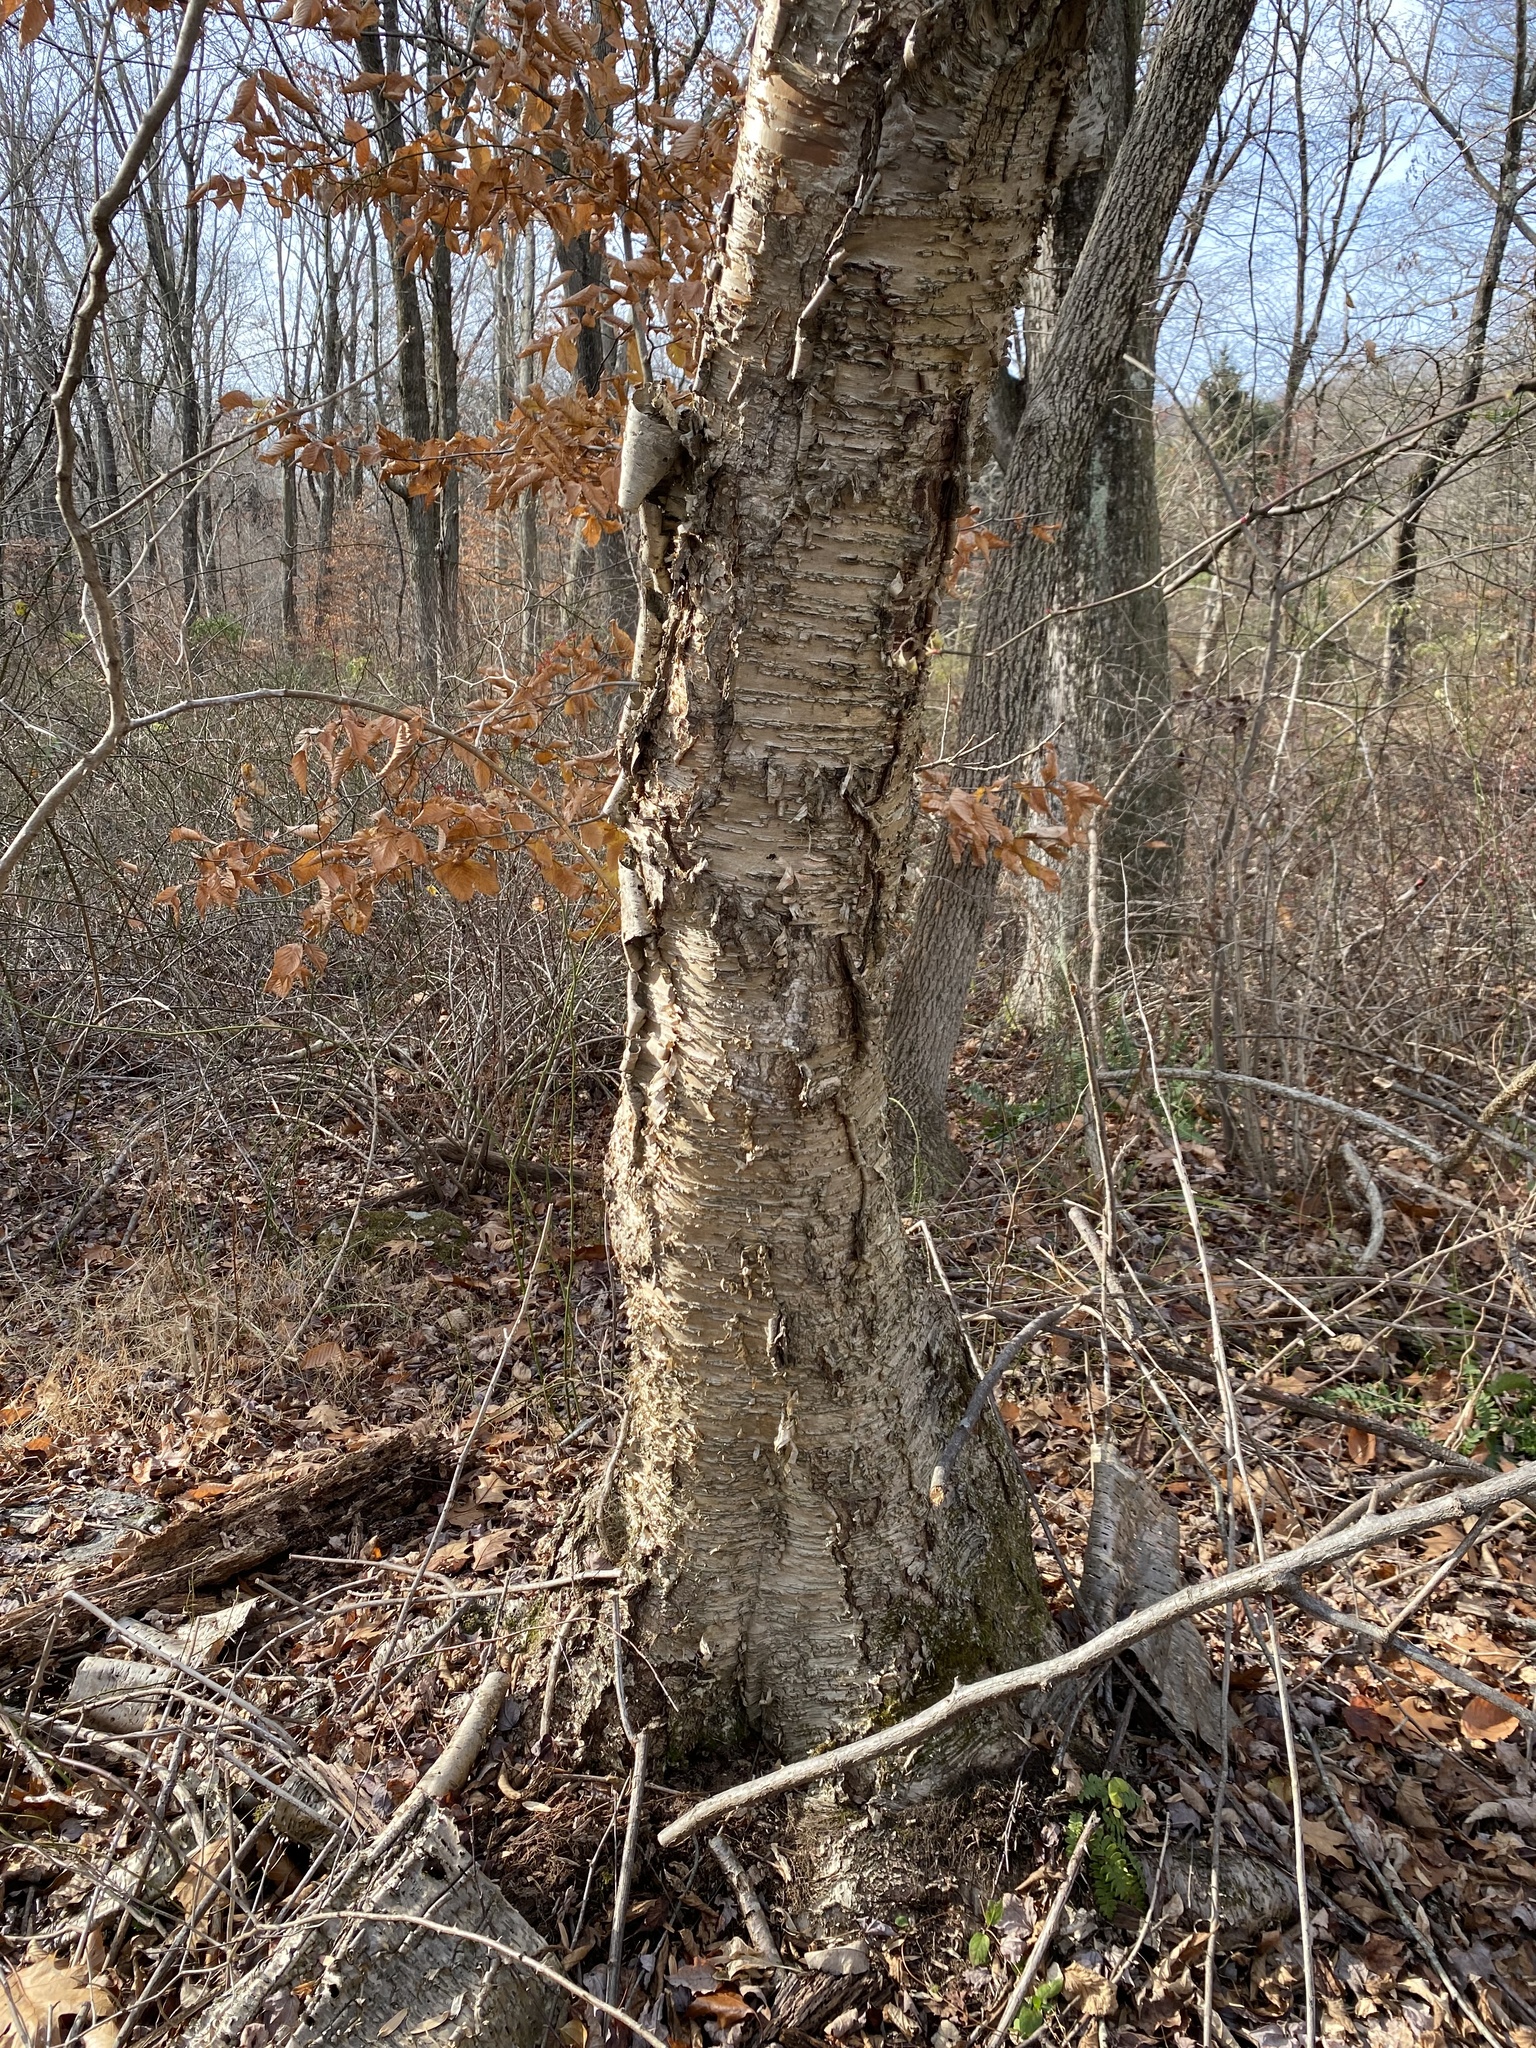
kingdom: Plantae
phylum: Tracheophyta
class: Magnoliopsida
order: Fagales
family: Betulaceae
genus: Betula
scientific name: Betula alleghaniensis
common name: Yellow birch
